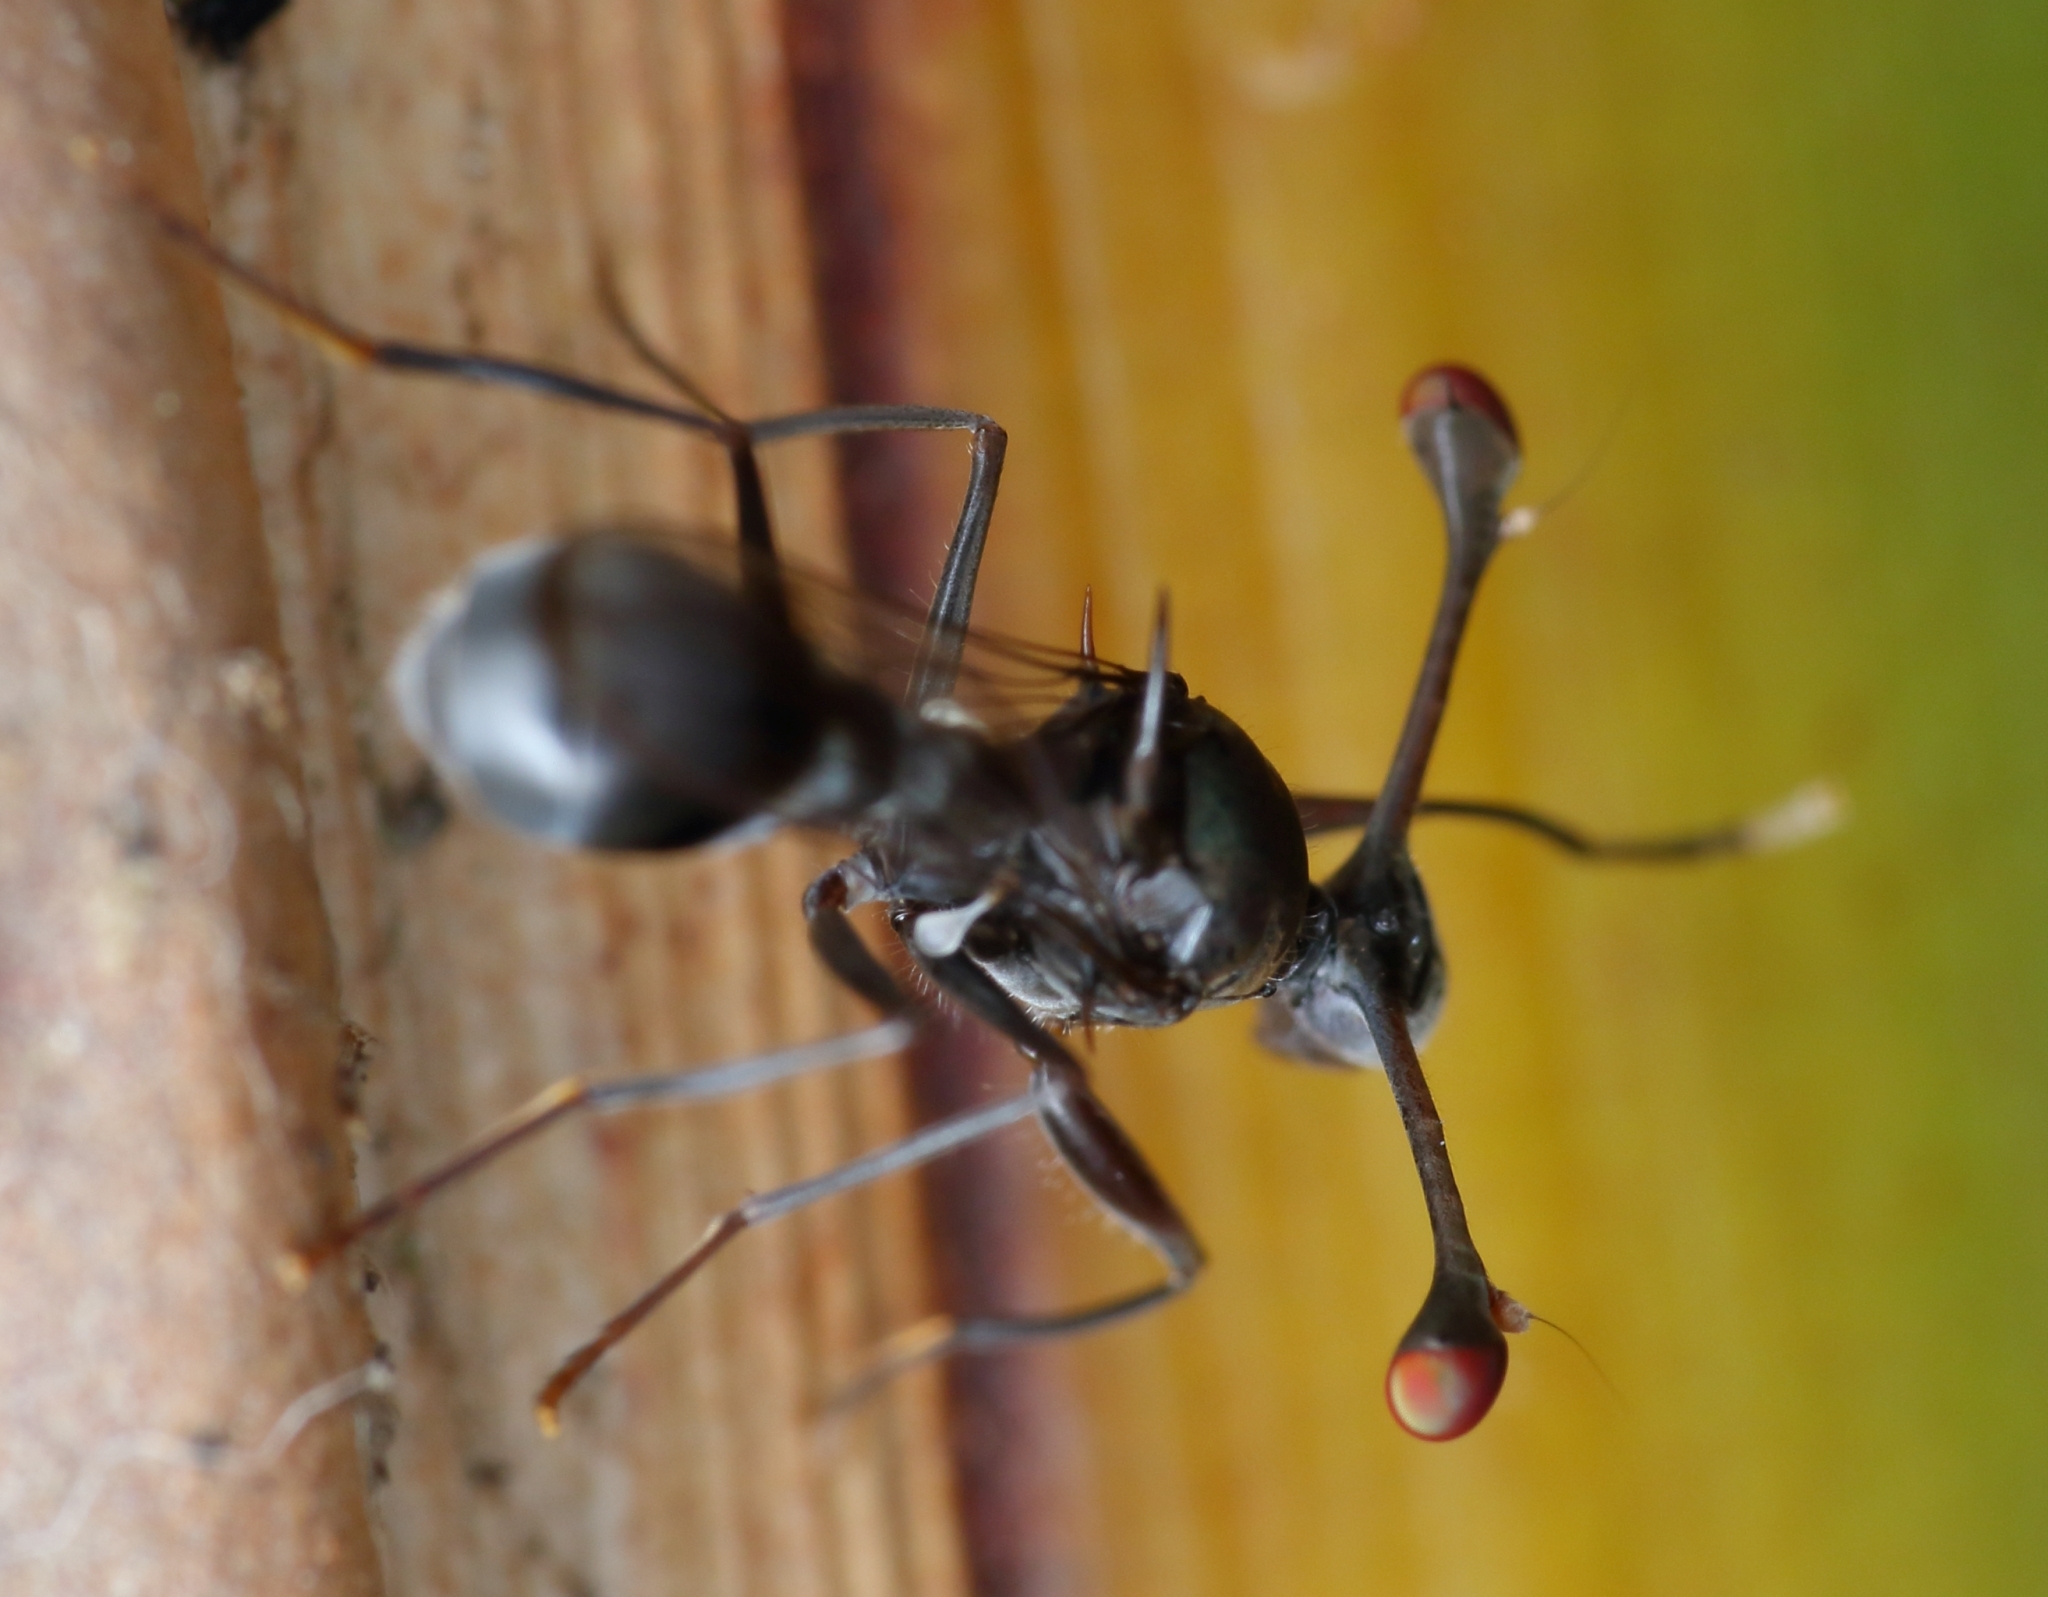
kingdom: Animalia
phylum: Arthropoda
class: Insecta
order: Diptera
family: Diopsidae
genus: Chaetodiopsis
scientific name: Chaetodiopsis
